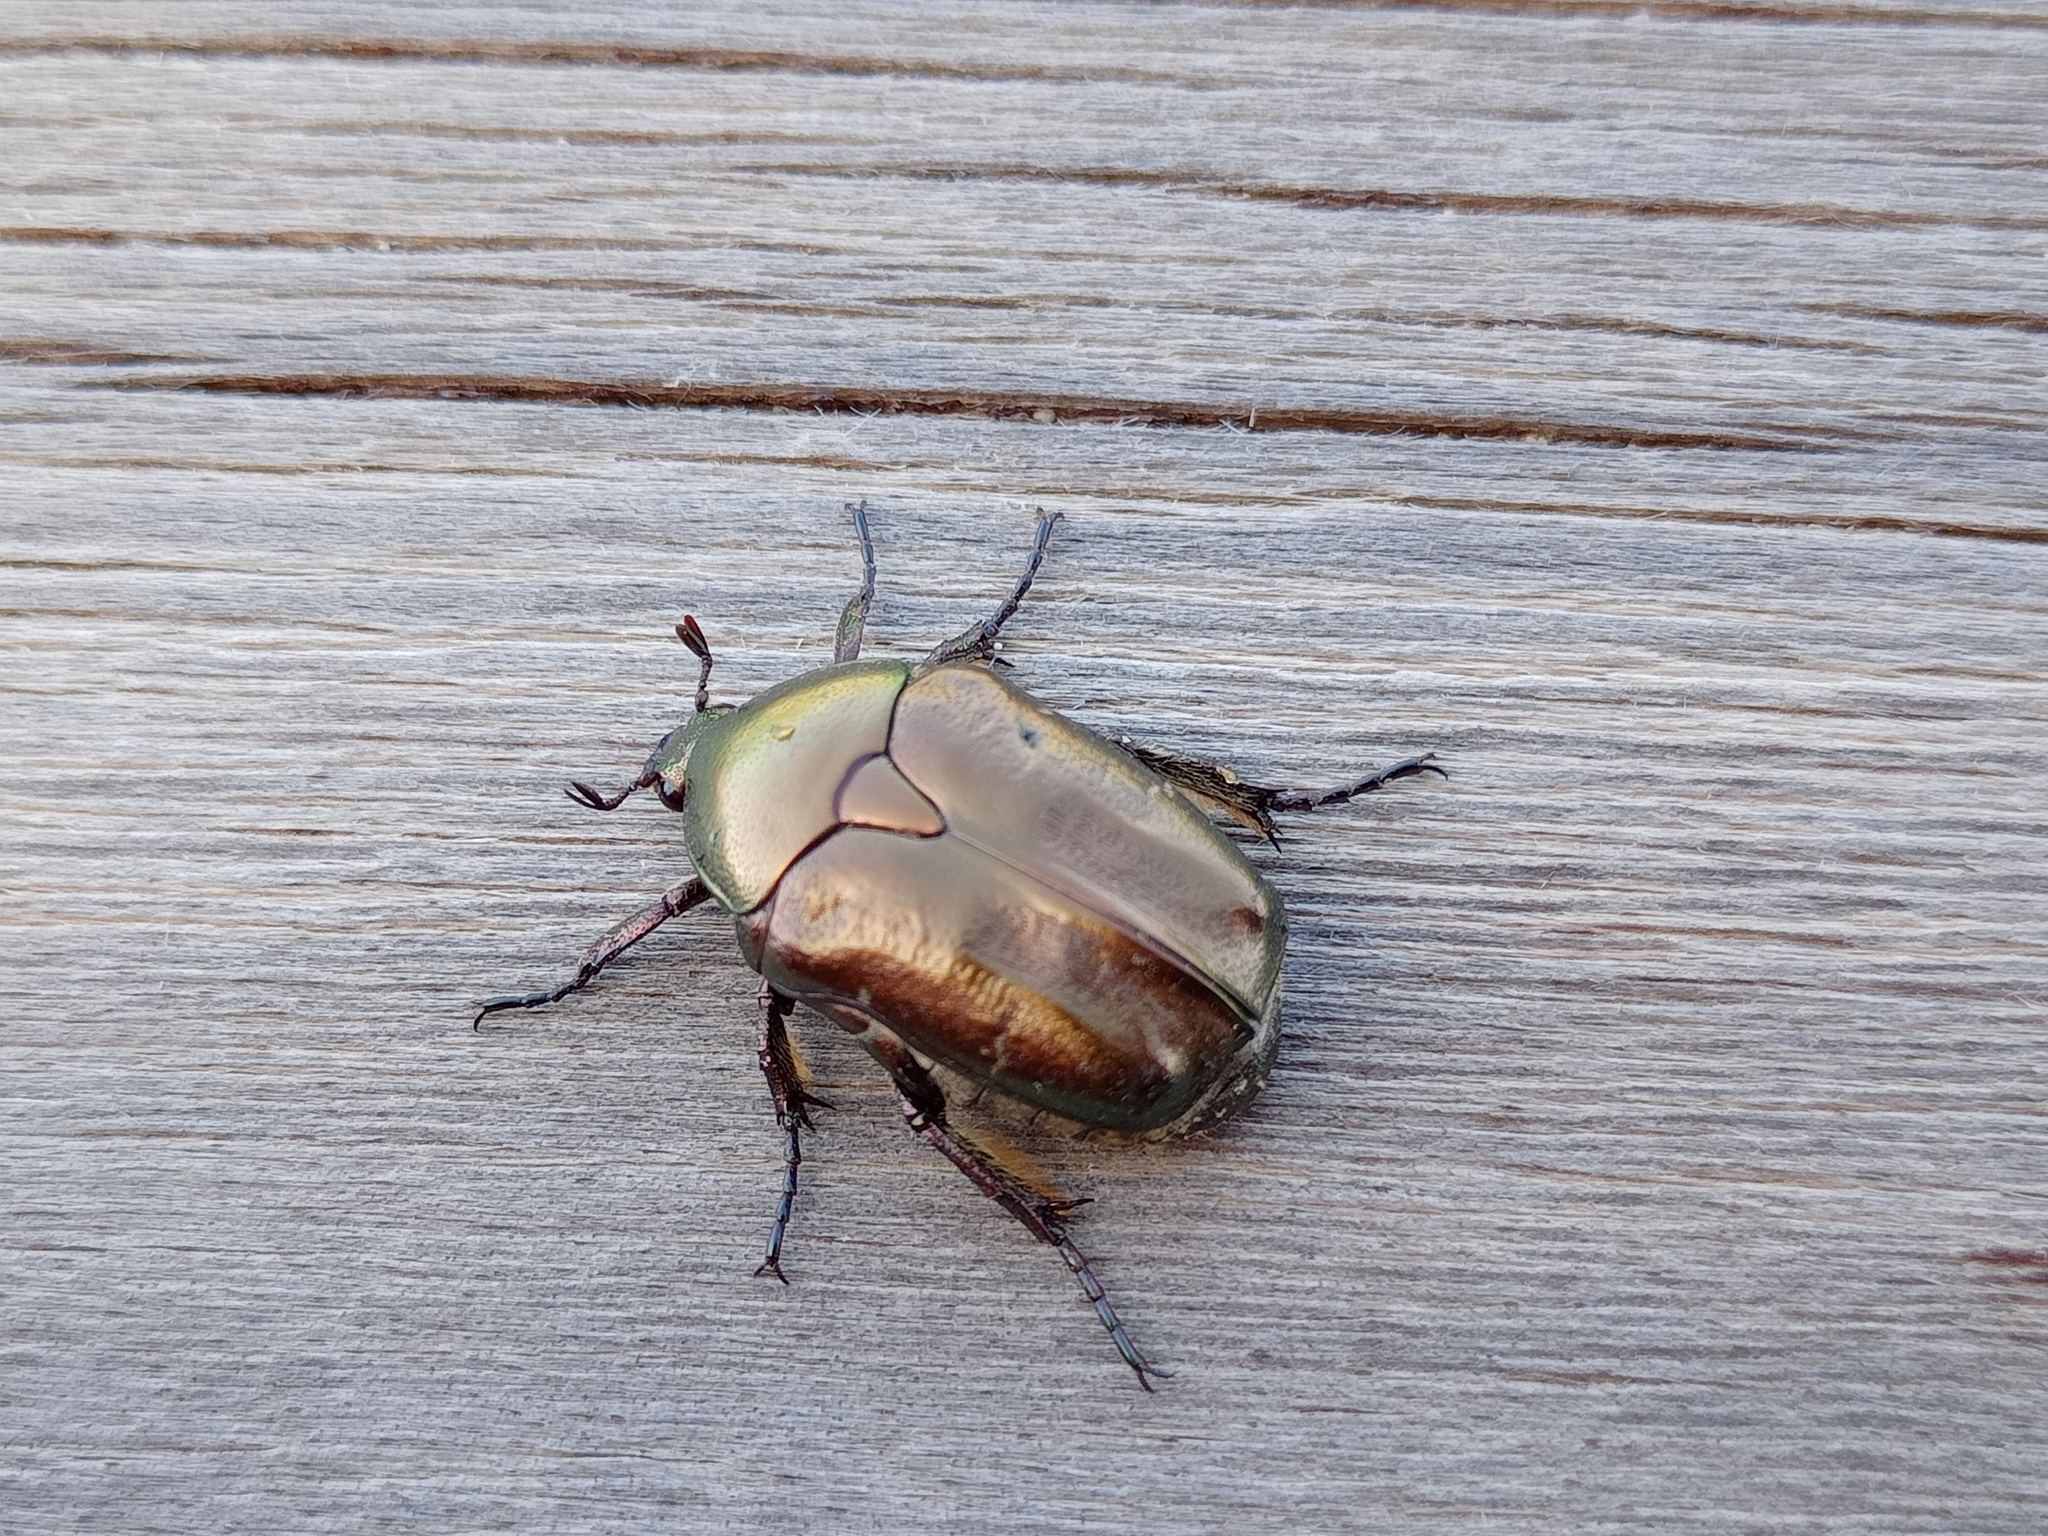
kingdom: Animalia
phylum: Arthropoda
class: Insecta
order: Coleoptera
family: Scarabaeidae
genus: Protaetia
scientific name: Protaetia cuprea
